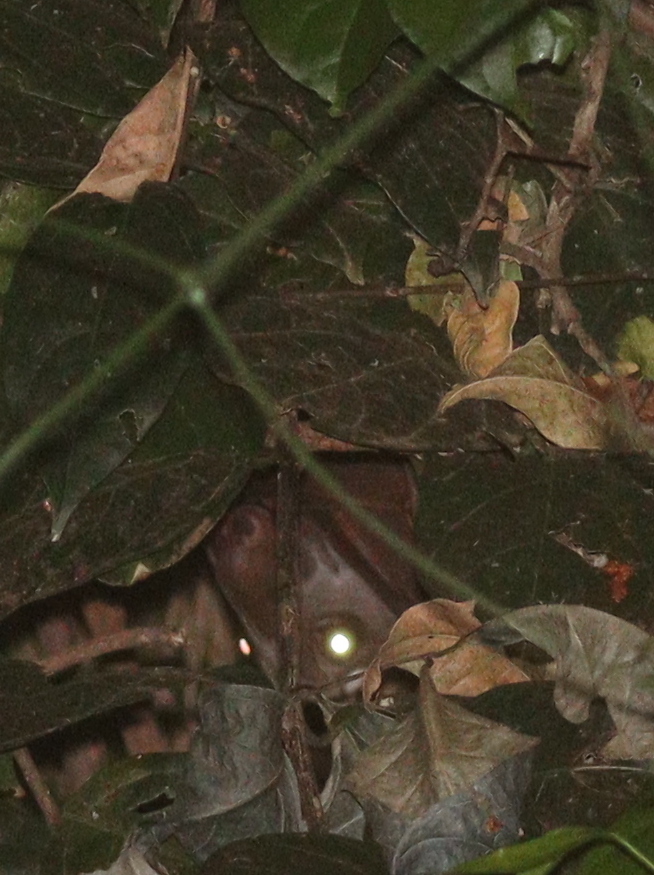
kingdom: Animalia
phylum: Chordata
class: Mammalia
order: Chiroptera
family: Pteropodidae
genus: Hypsignathus
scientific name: Hypsignathus monstrosus
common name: Hammer-headed fruit bat
